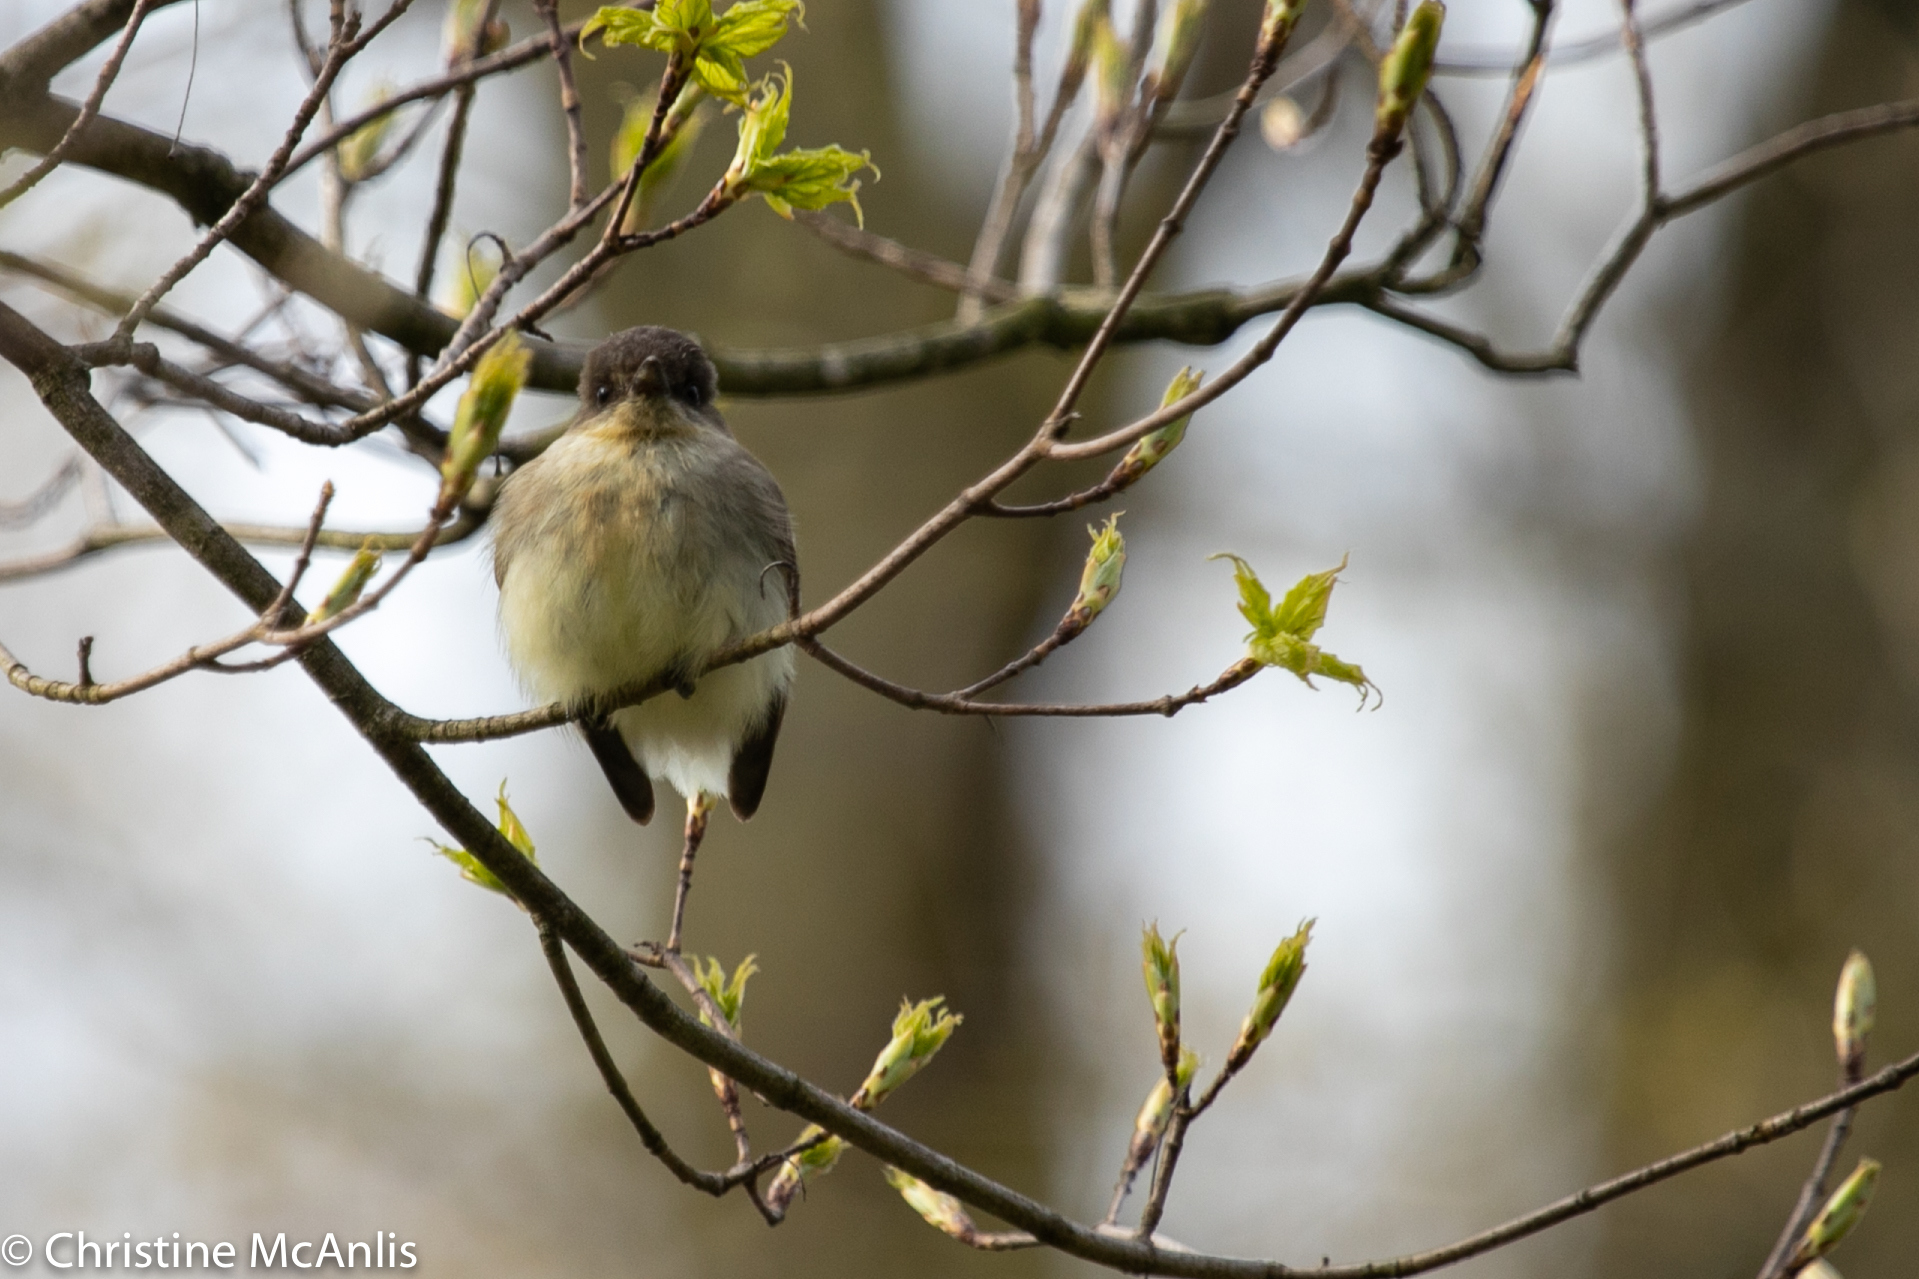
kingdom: Animalia
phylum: Chordata
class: Aves
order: Passeriformes
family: Tyrannidae
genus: Sayornis
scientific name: Sayornis phoebe
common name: Eastern phoebe
